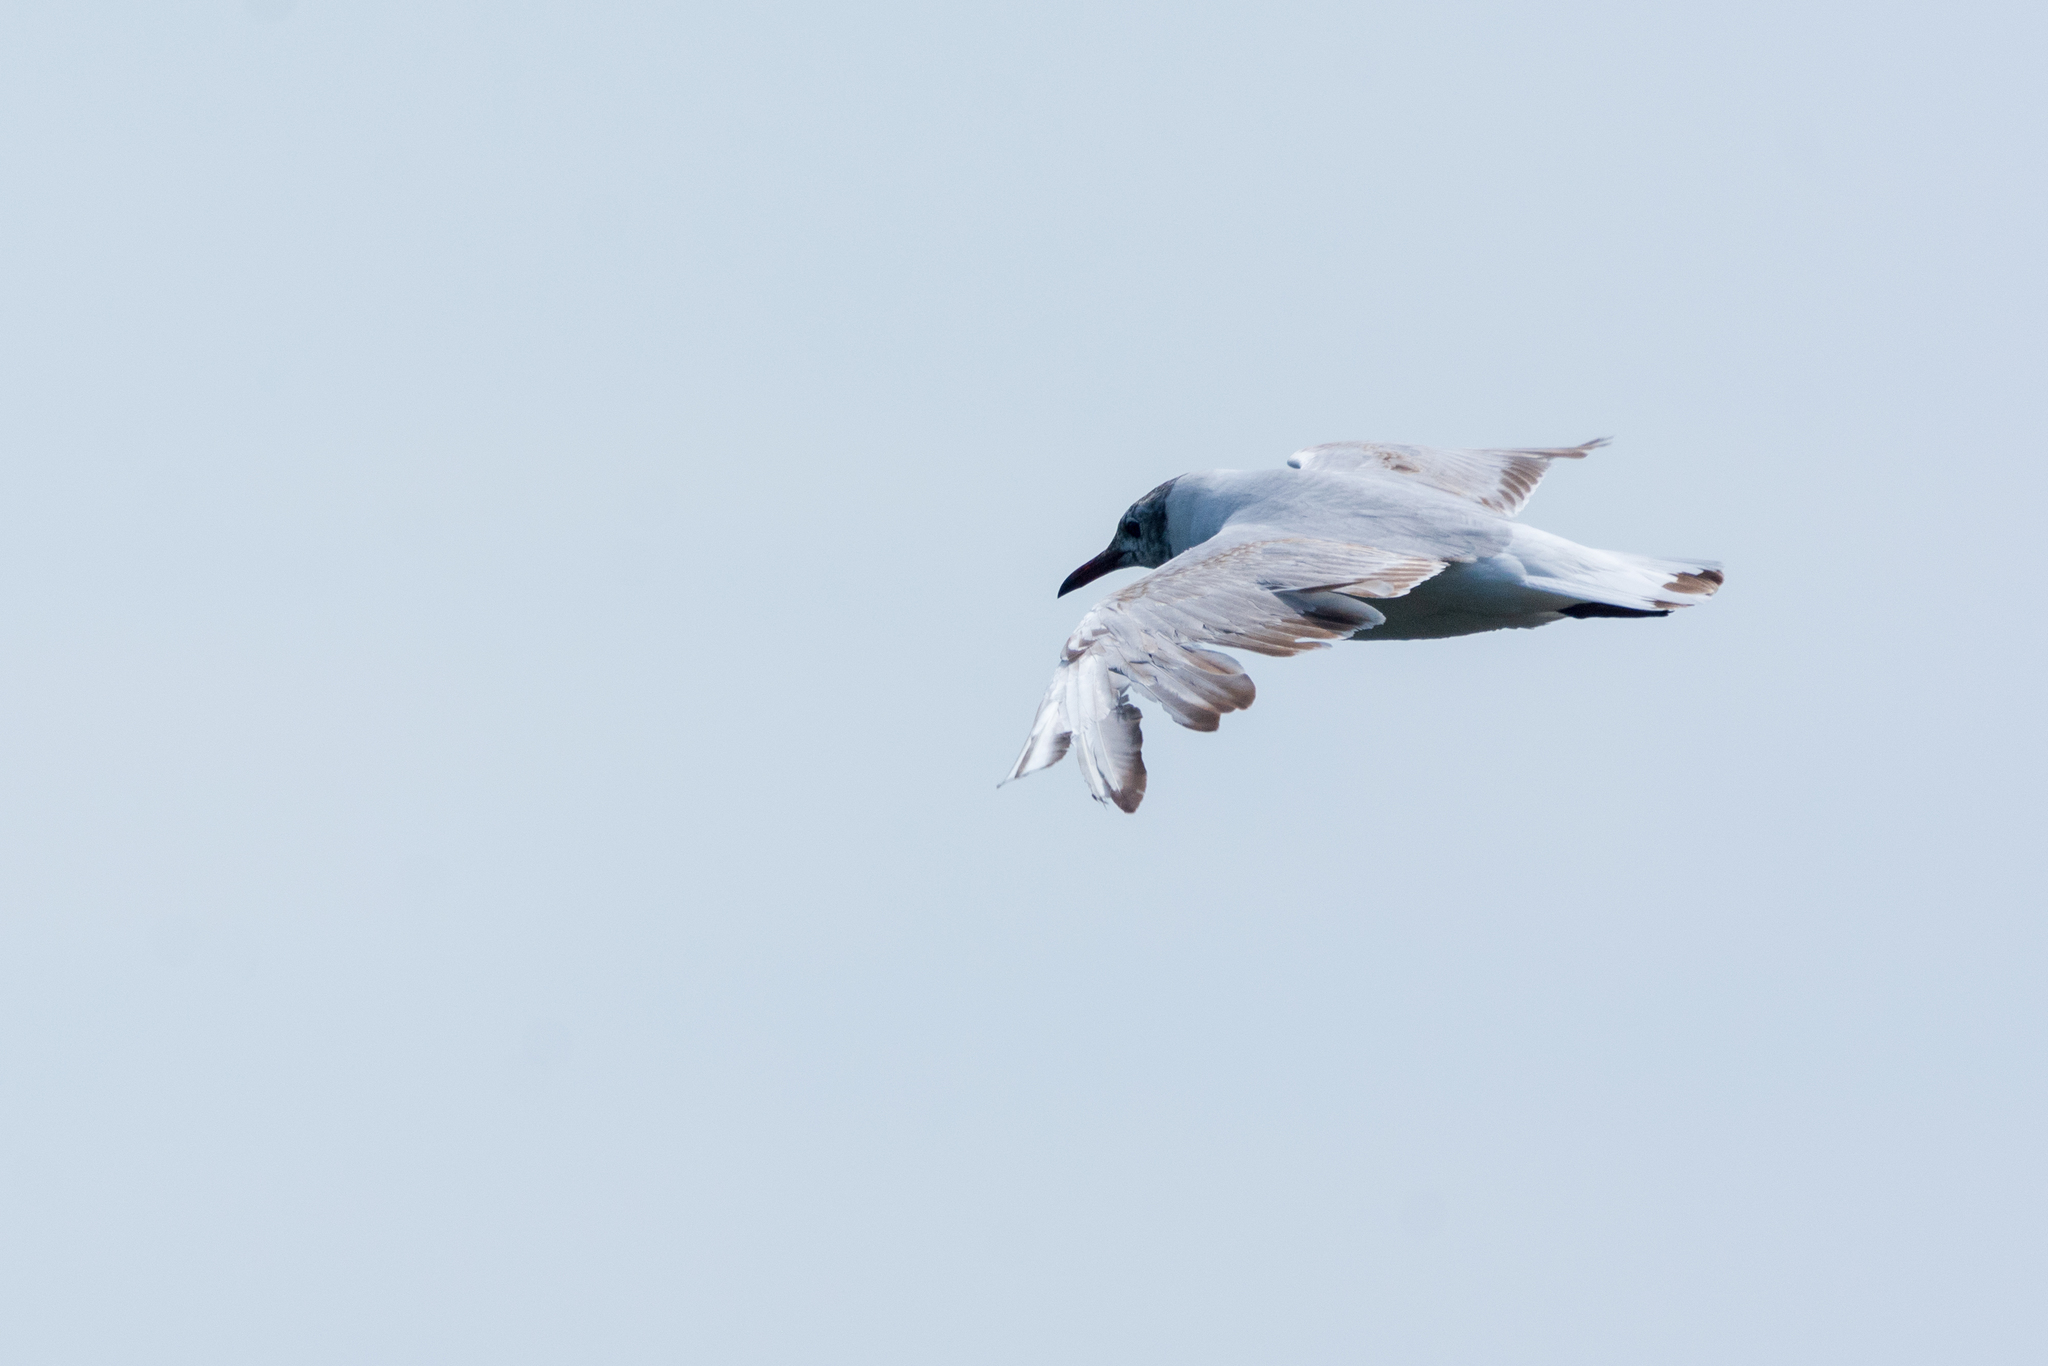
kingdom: Animalia
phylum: Chordata
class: Aves
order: Charadriiformes
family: Laridae
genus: Chroicocephalus
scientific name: Chroicocephalus ridibundus
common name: Black-headed gull
